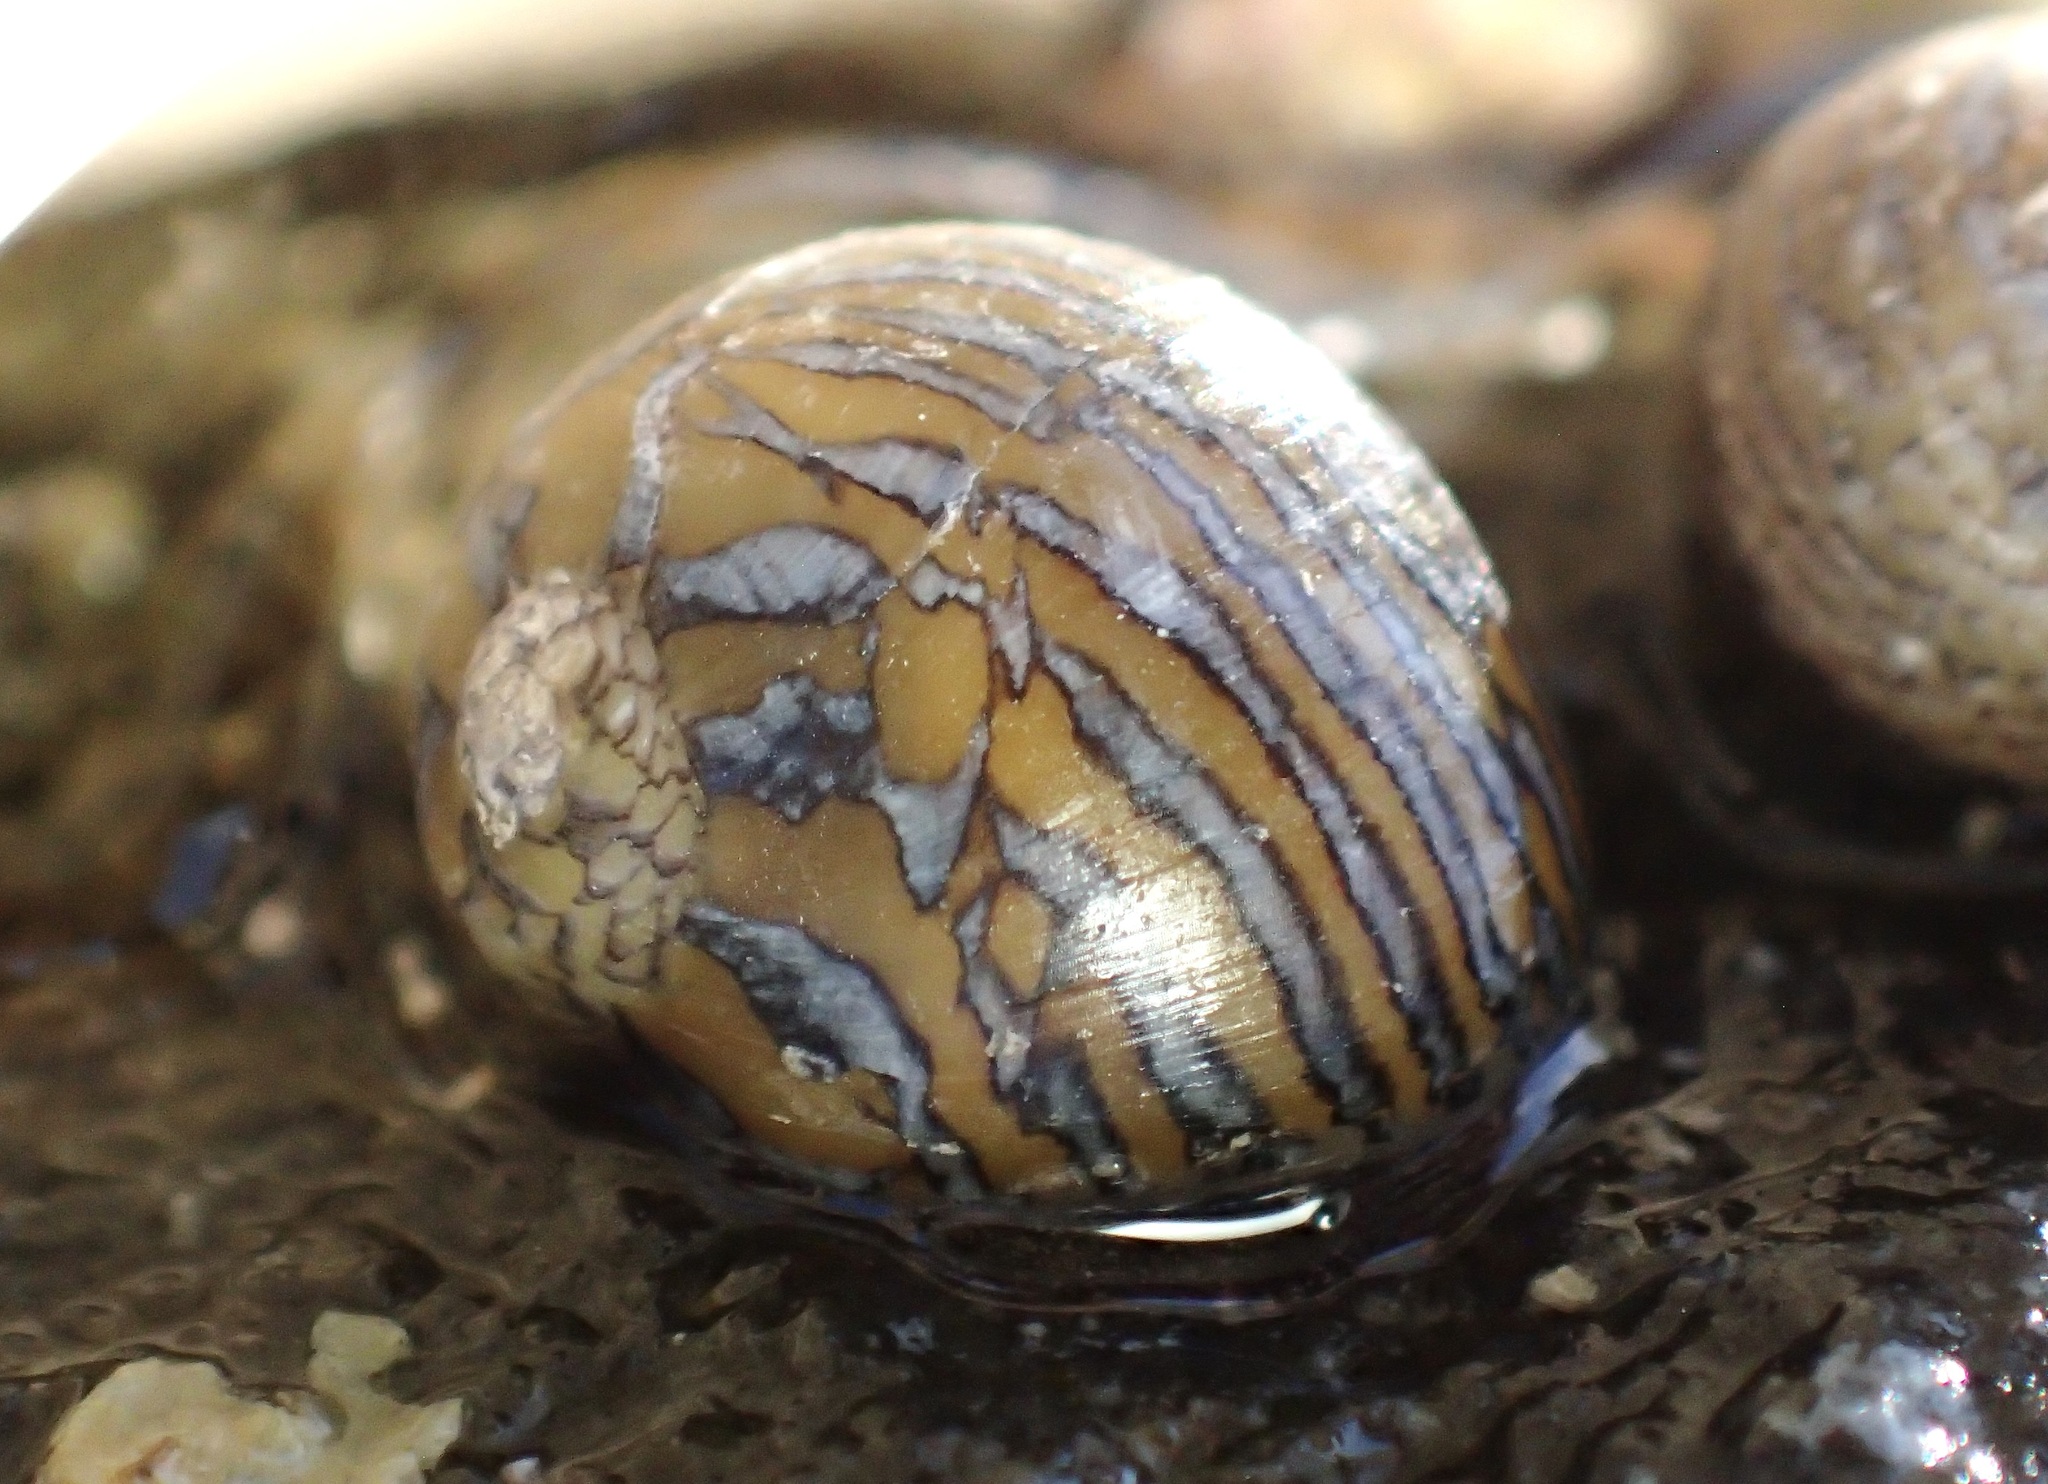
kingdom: Animalia
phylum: Mollusca
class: Gastropoda
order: Cycloneritida
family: Neritidae
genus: Vitta
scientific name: Vitta luteofasciata
